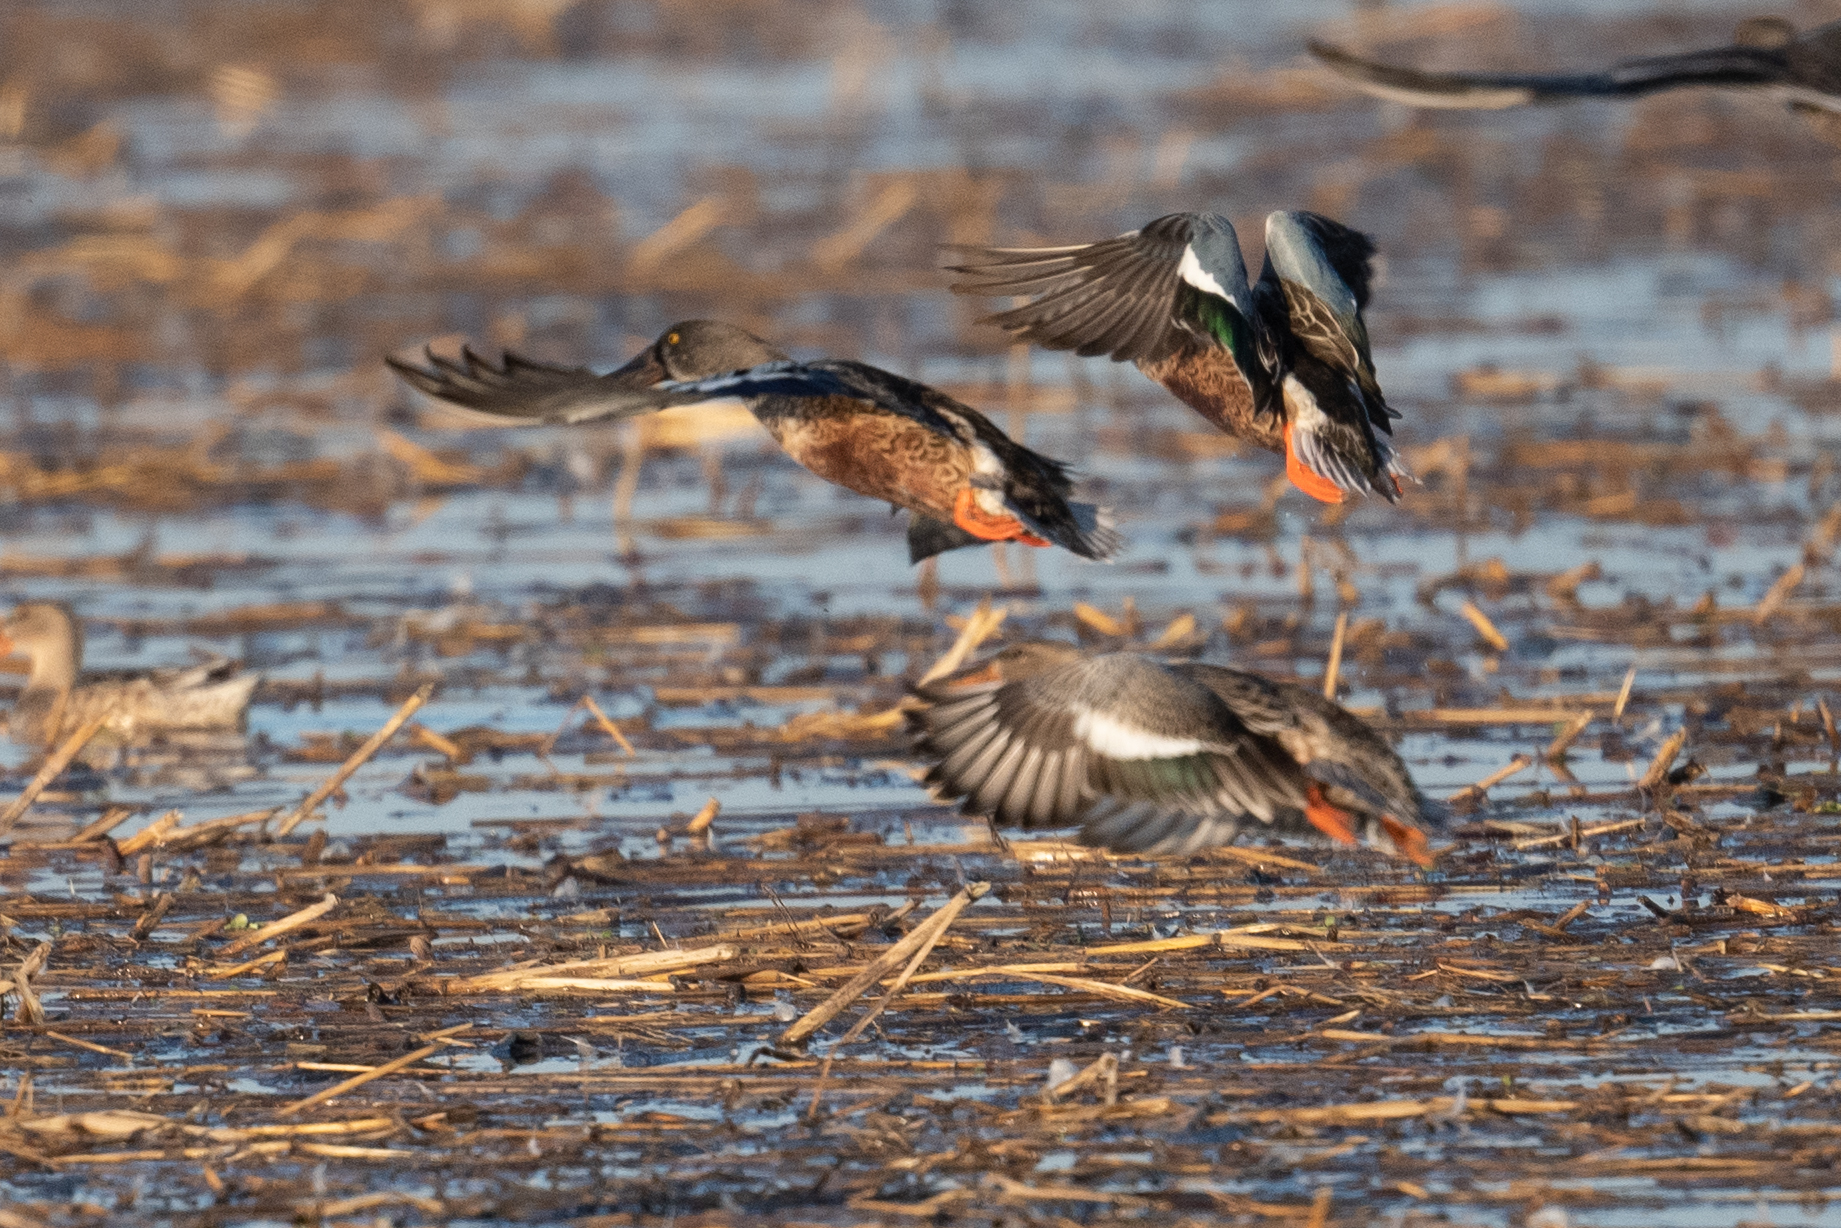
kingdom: Animalia
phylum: Chordata
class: Aves
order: Anseriformes
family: Anatidae
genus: Spatula
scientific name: Spatula clypeata
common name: Northern shoveler
